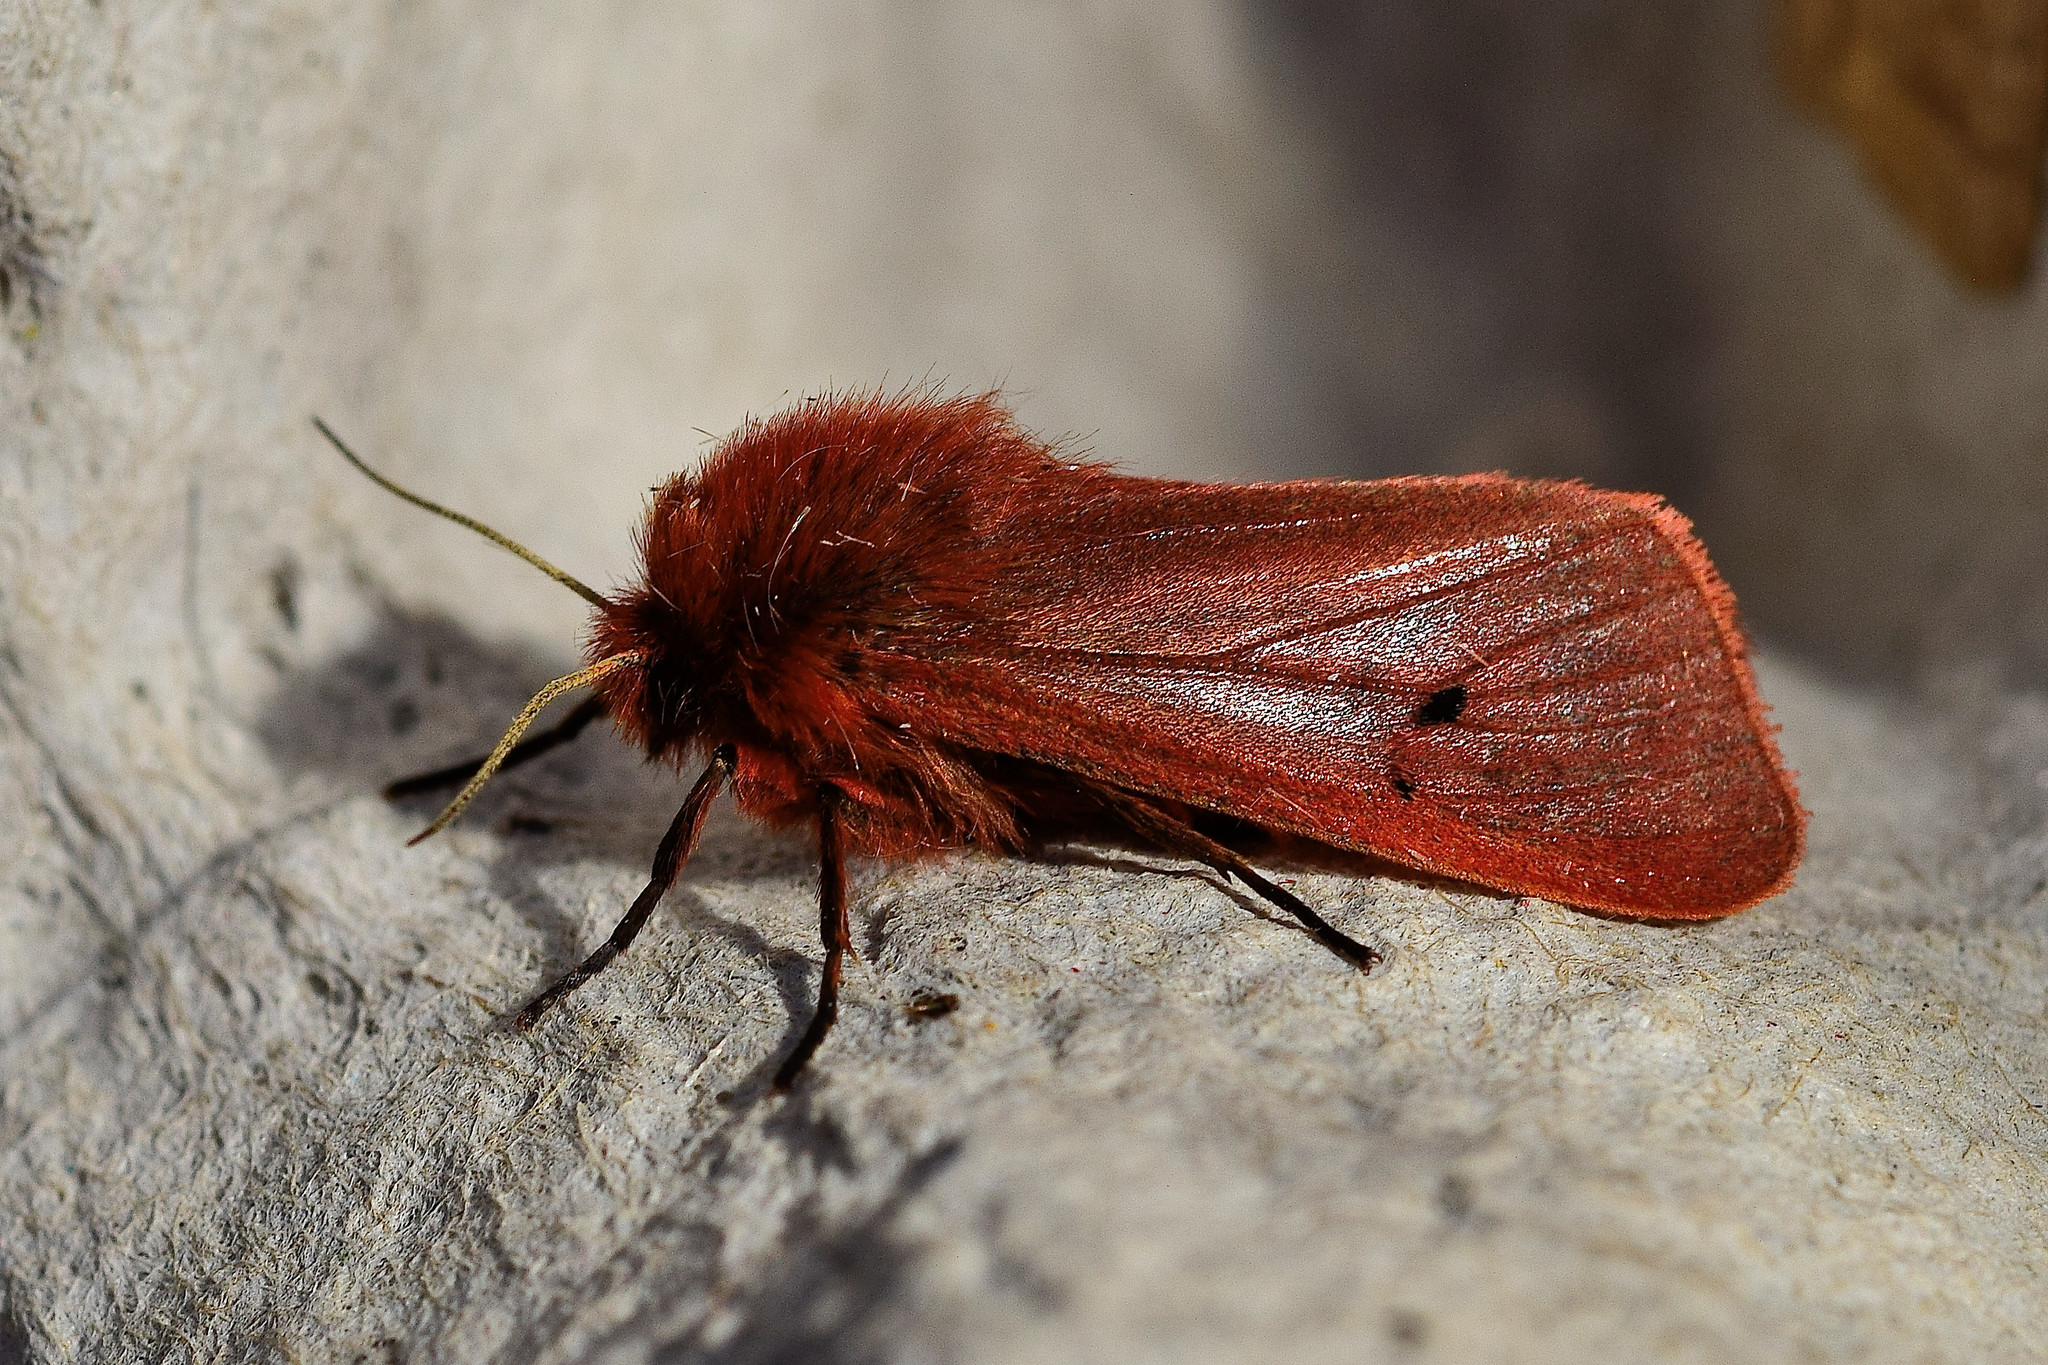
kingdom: Animalia
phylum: Arthropoda
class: Insecta
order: Lepidoptera
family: Erebidae
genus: Phragmatobia
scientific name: Phragmatobia fuliginosa
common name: Ruby tiger
